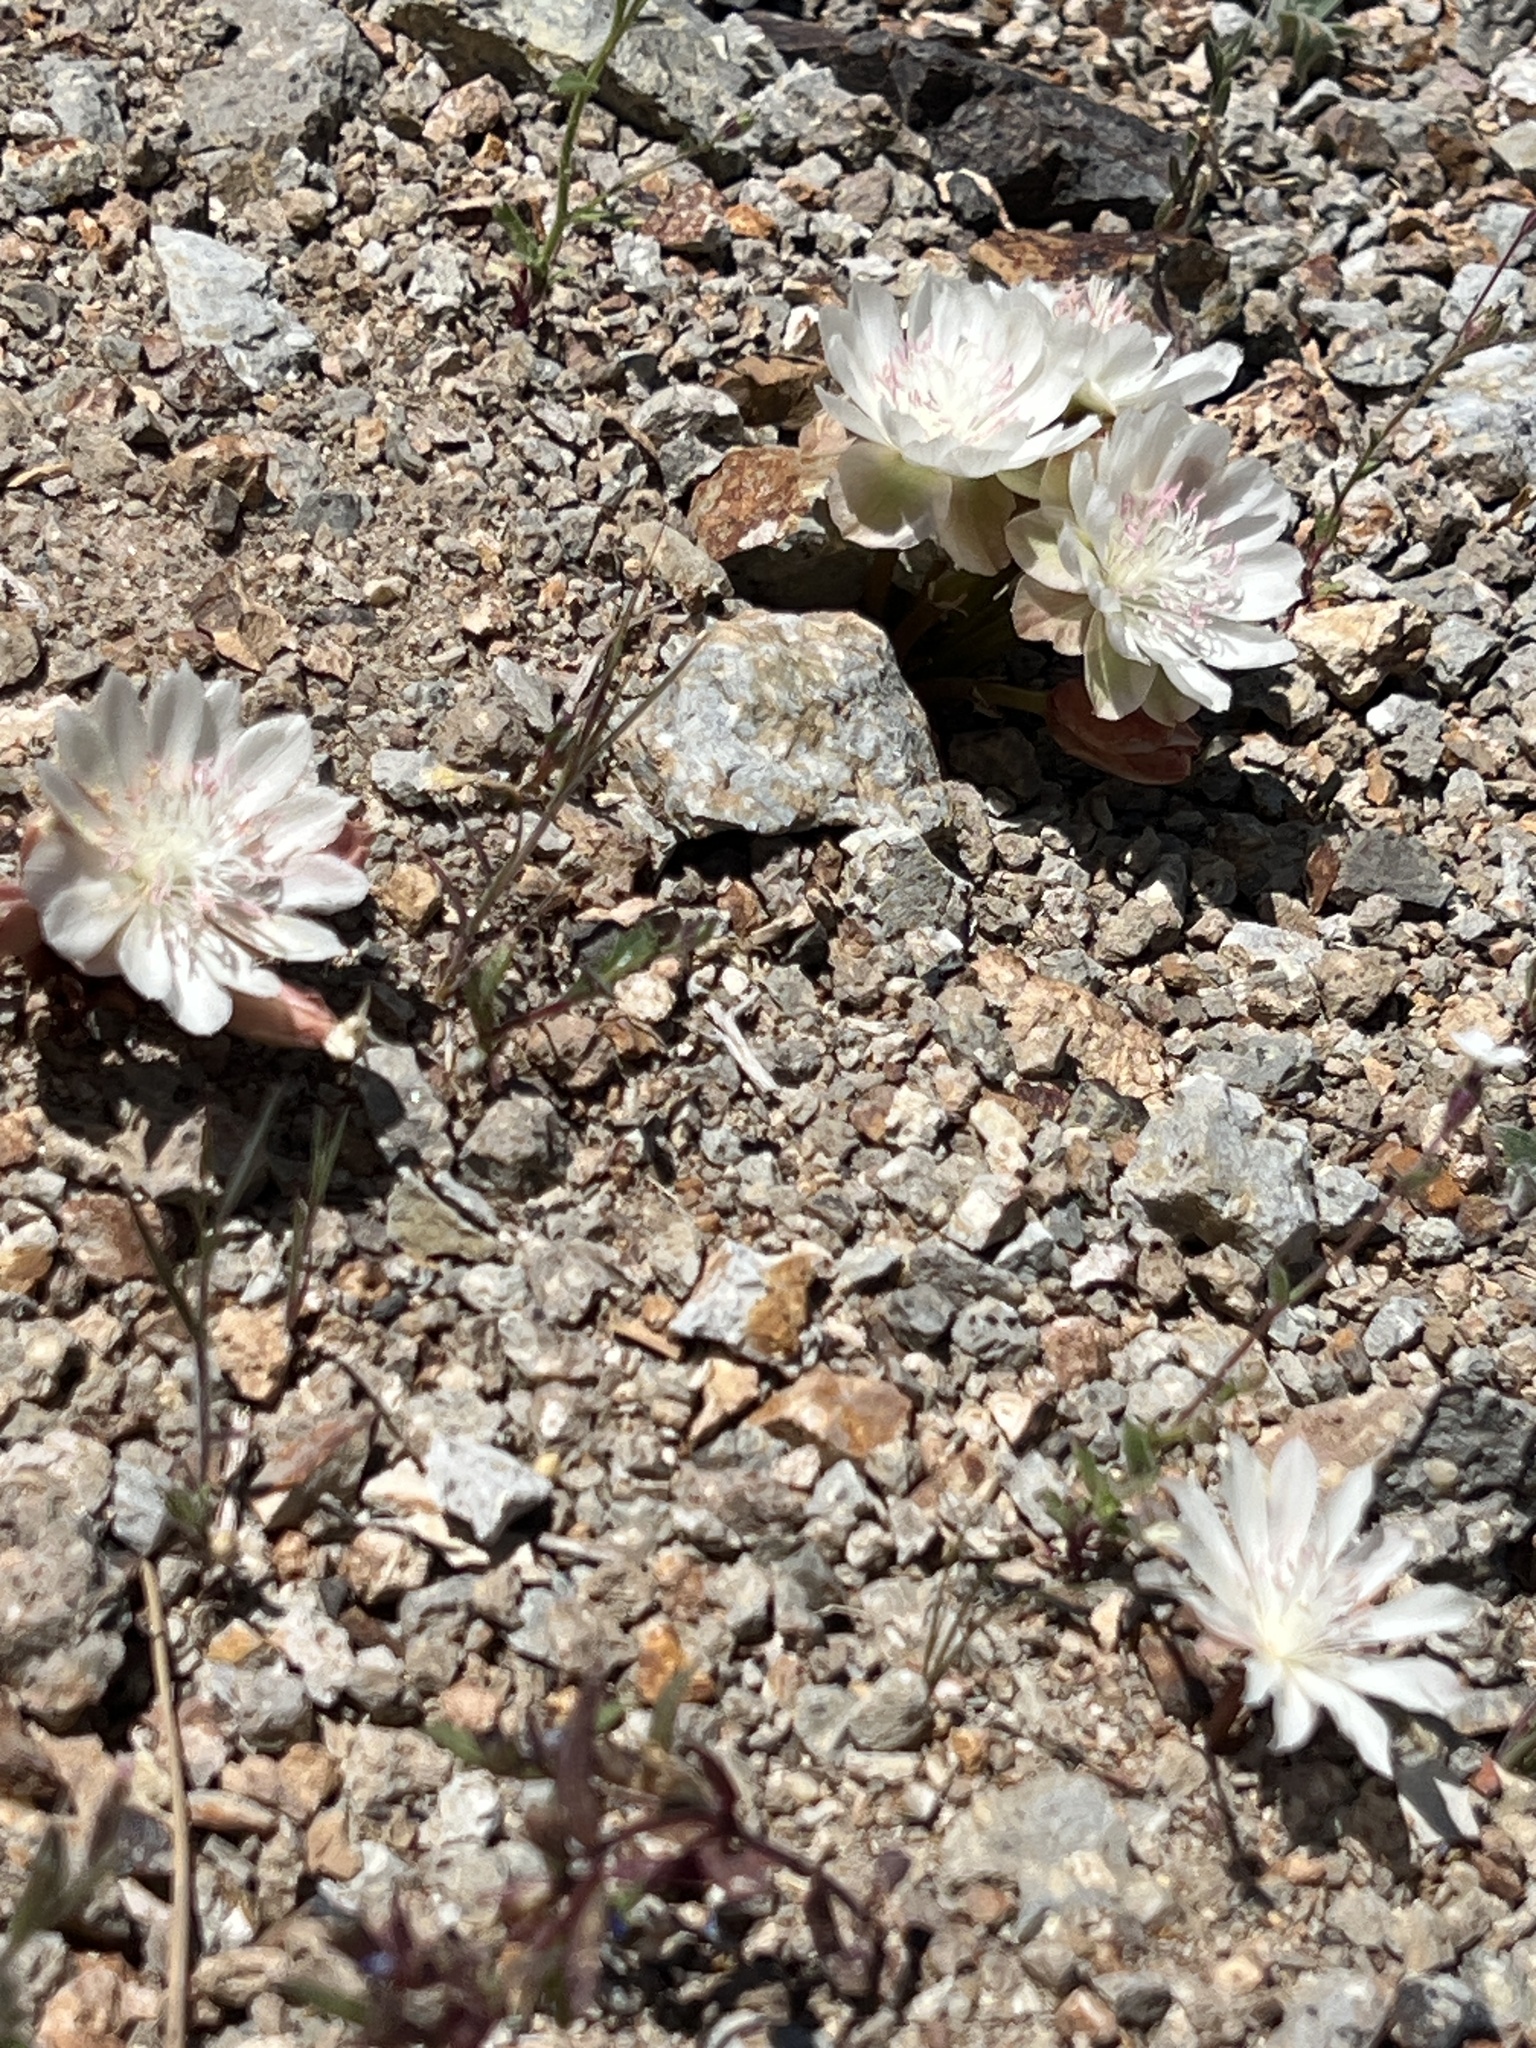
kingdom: Plantae
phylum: Tracheophyta
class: Magnoliopsida
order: Caryophyllales
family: Montiaceae
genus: Lewisia
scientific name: Lewisia rediviva
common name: Bitter-root
